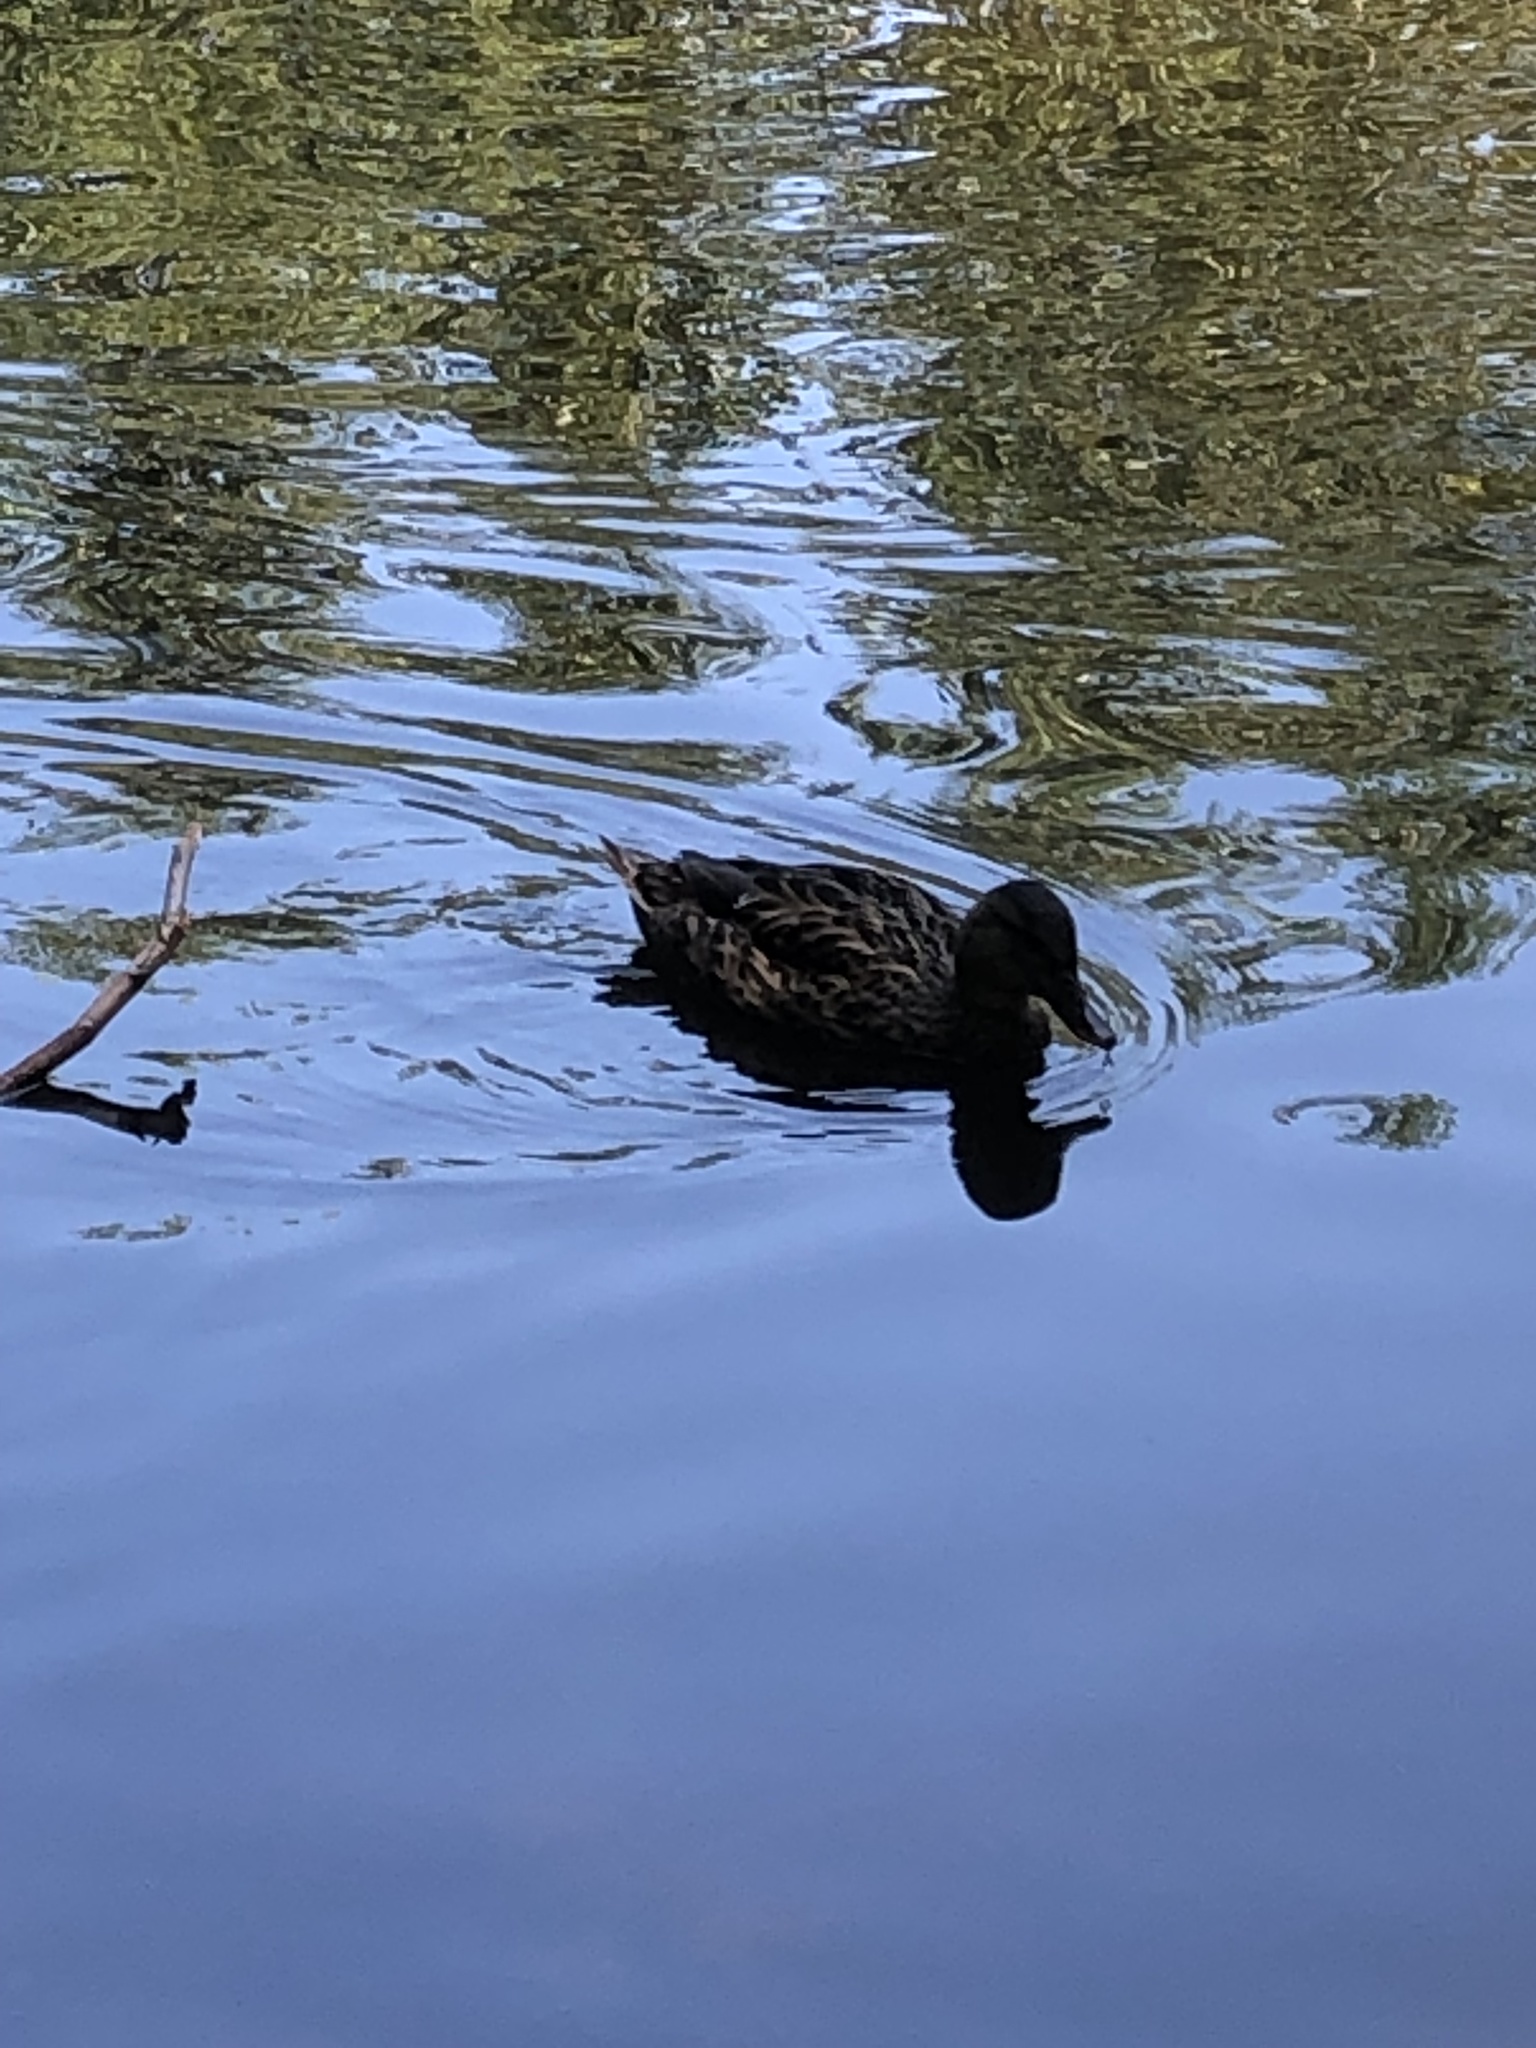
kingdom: Animalia
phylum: Chordata
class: Aves
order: Anseriformes
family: Anatidae
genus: Anas
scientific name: Anas platyrhynchos
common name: Mallard
